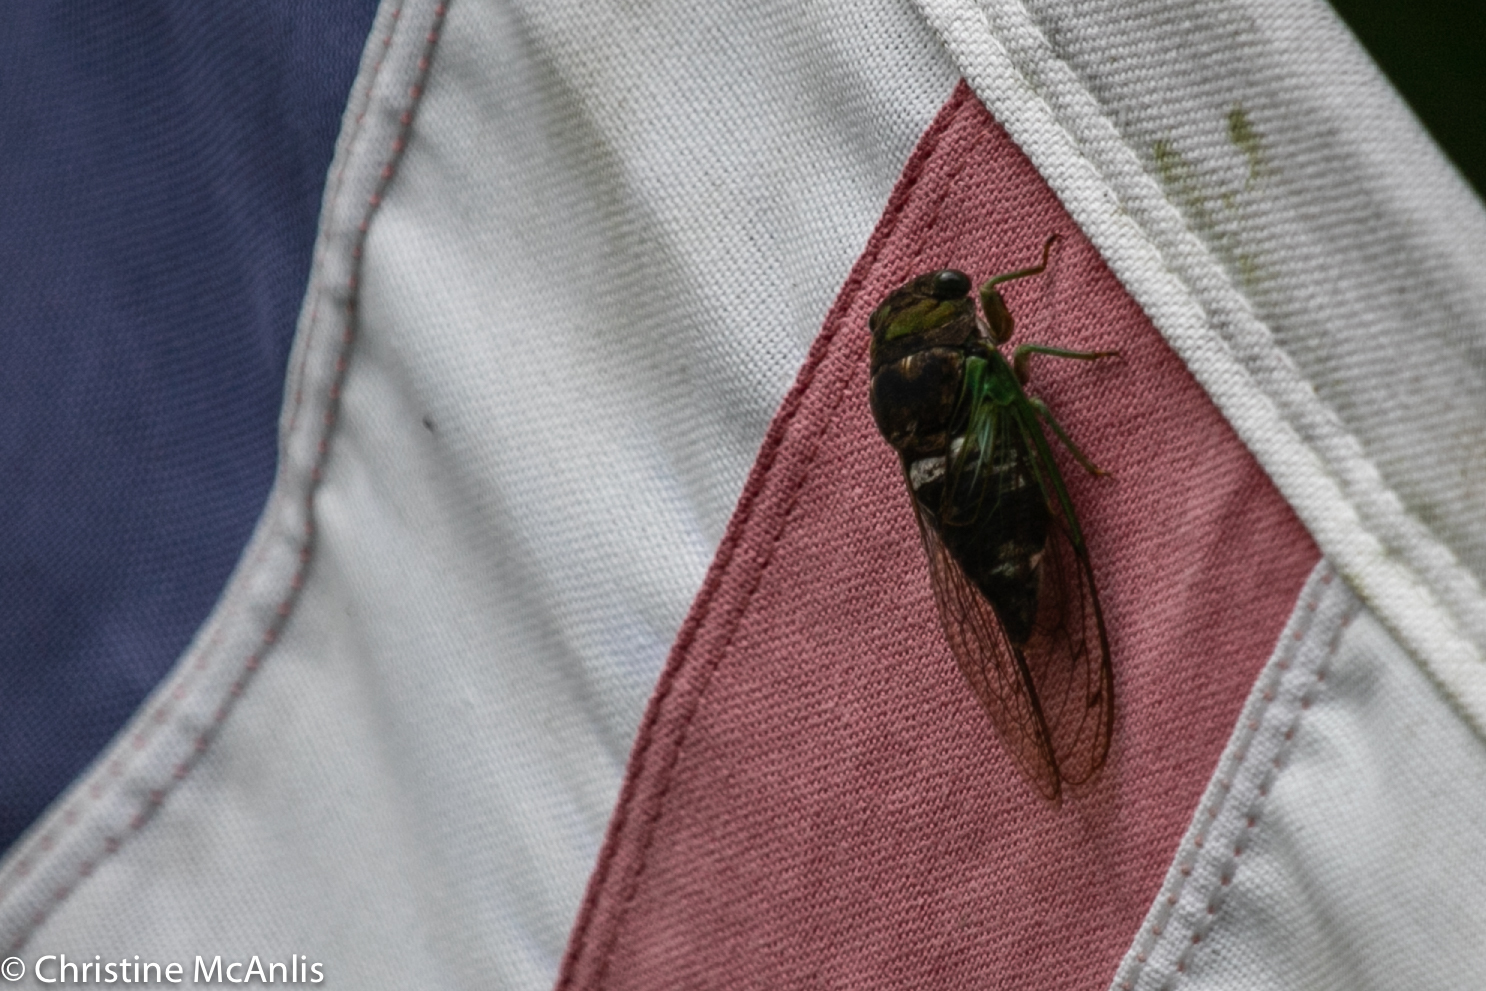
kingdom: Animalia
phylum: Arthropoda
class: Insecta
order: Hemiptera
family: Cicadidae
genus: Neotibicen
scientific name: Neotibicen tibicen
